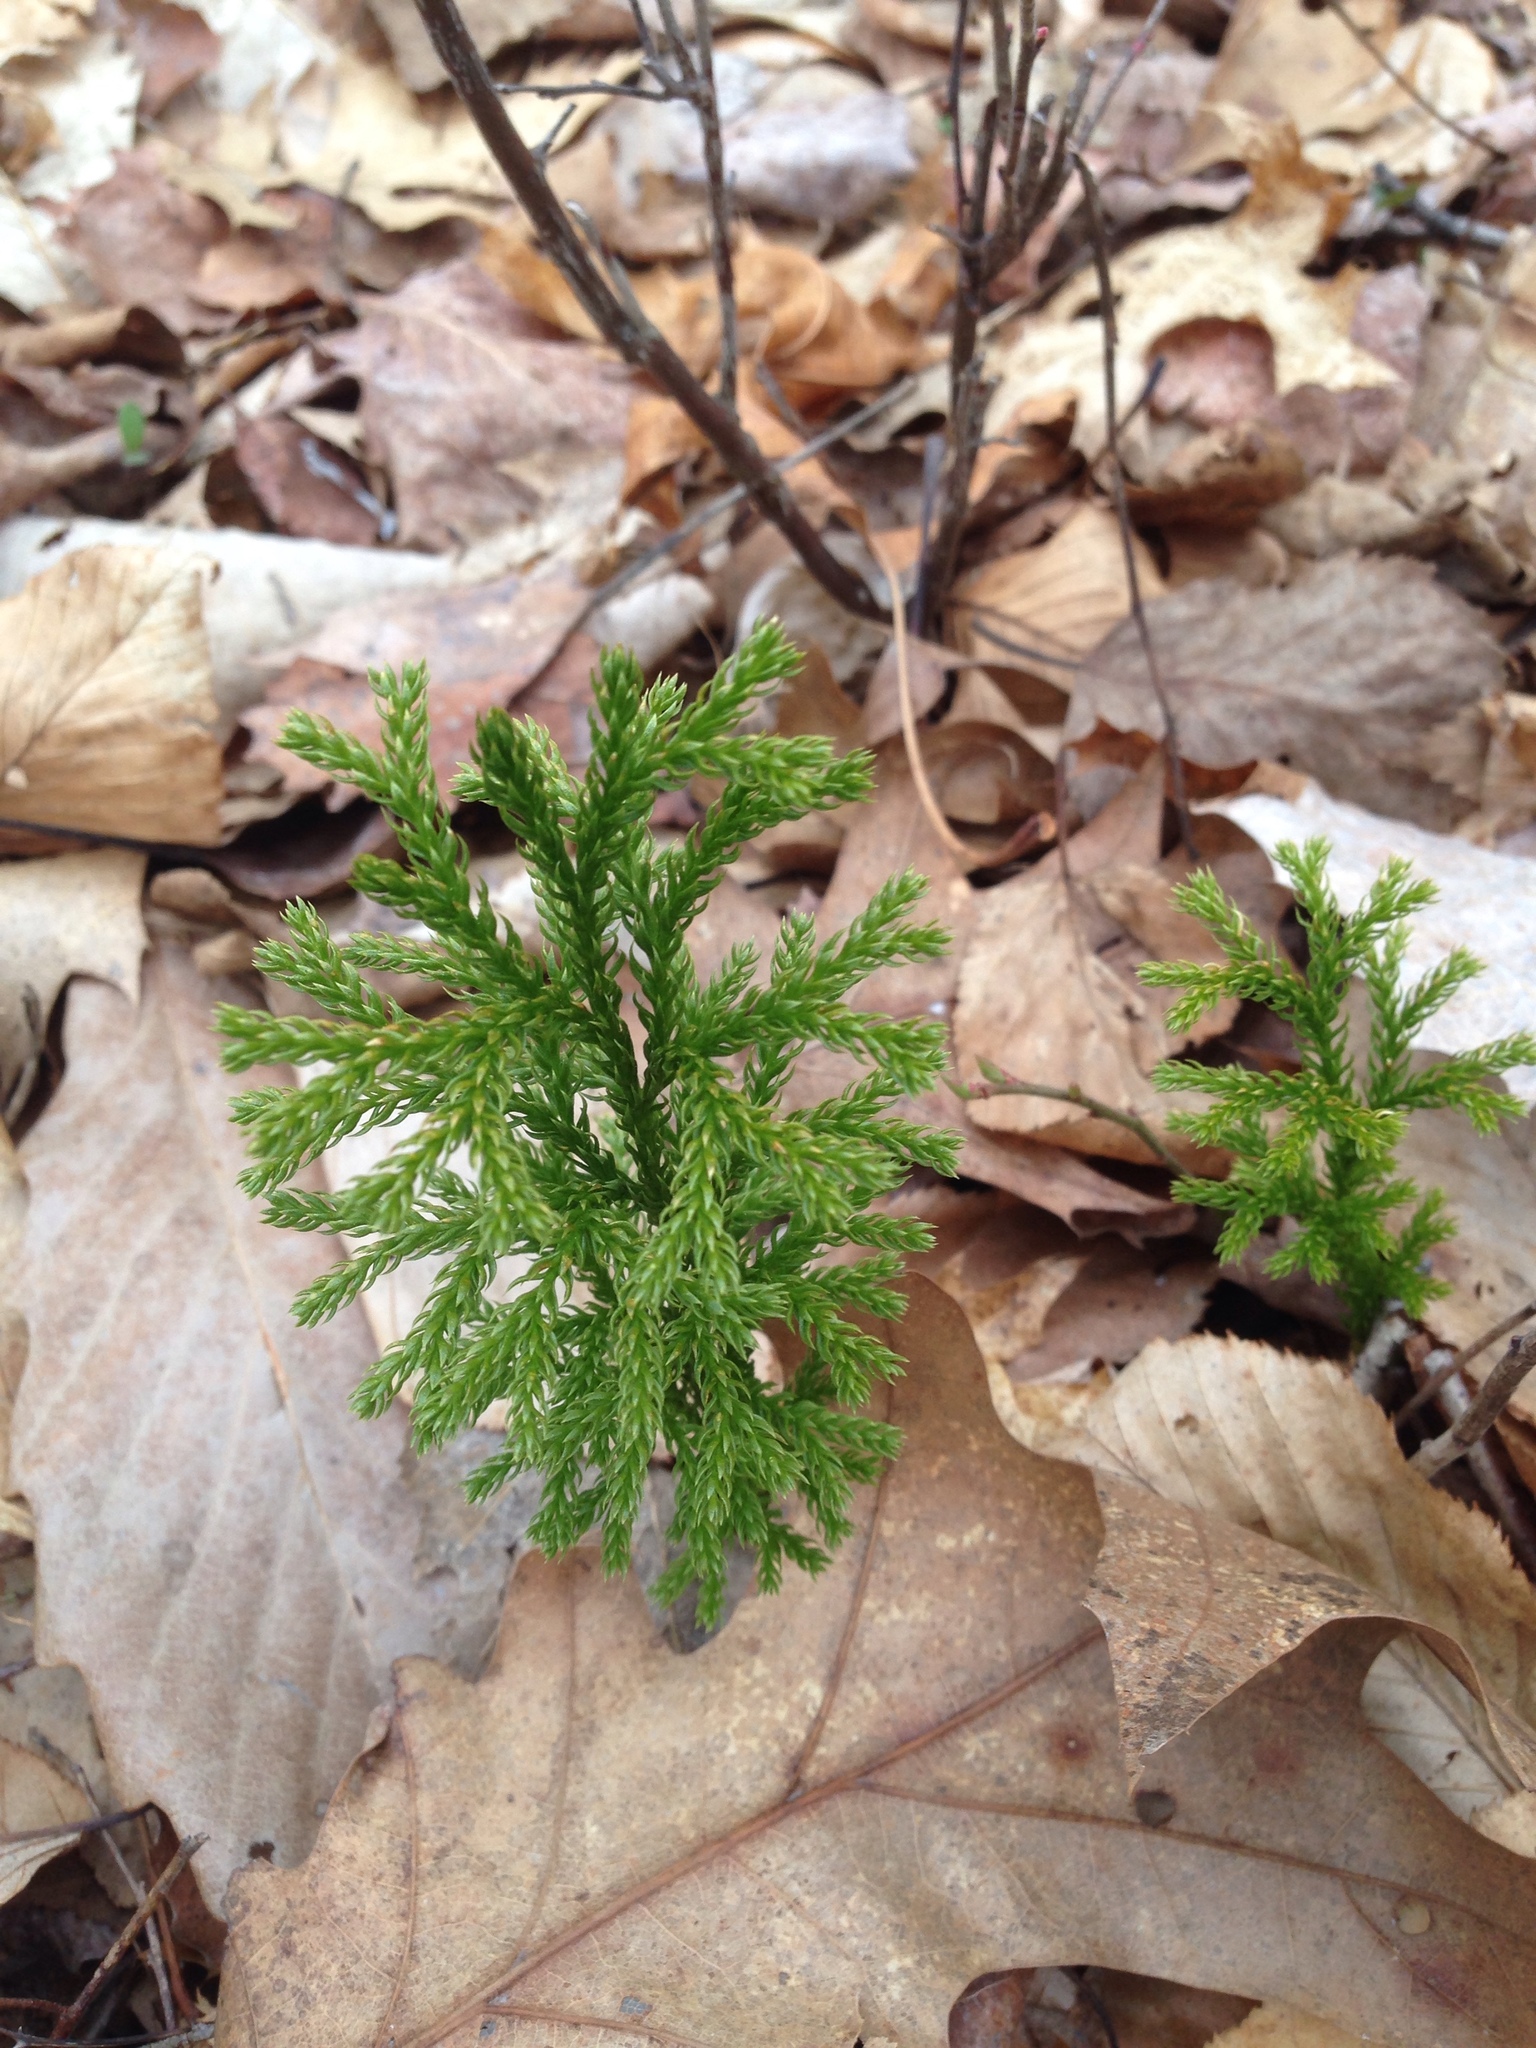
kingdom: Plantae
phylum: Tracheophyta
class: Lycopodiopsida
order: Lycopodiales
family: Lycopodiaceae
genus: Dendrolycopodium
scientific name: Dendrolycopodium hickeyi
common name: Hickey's clubmoss
